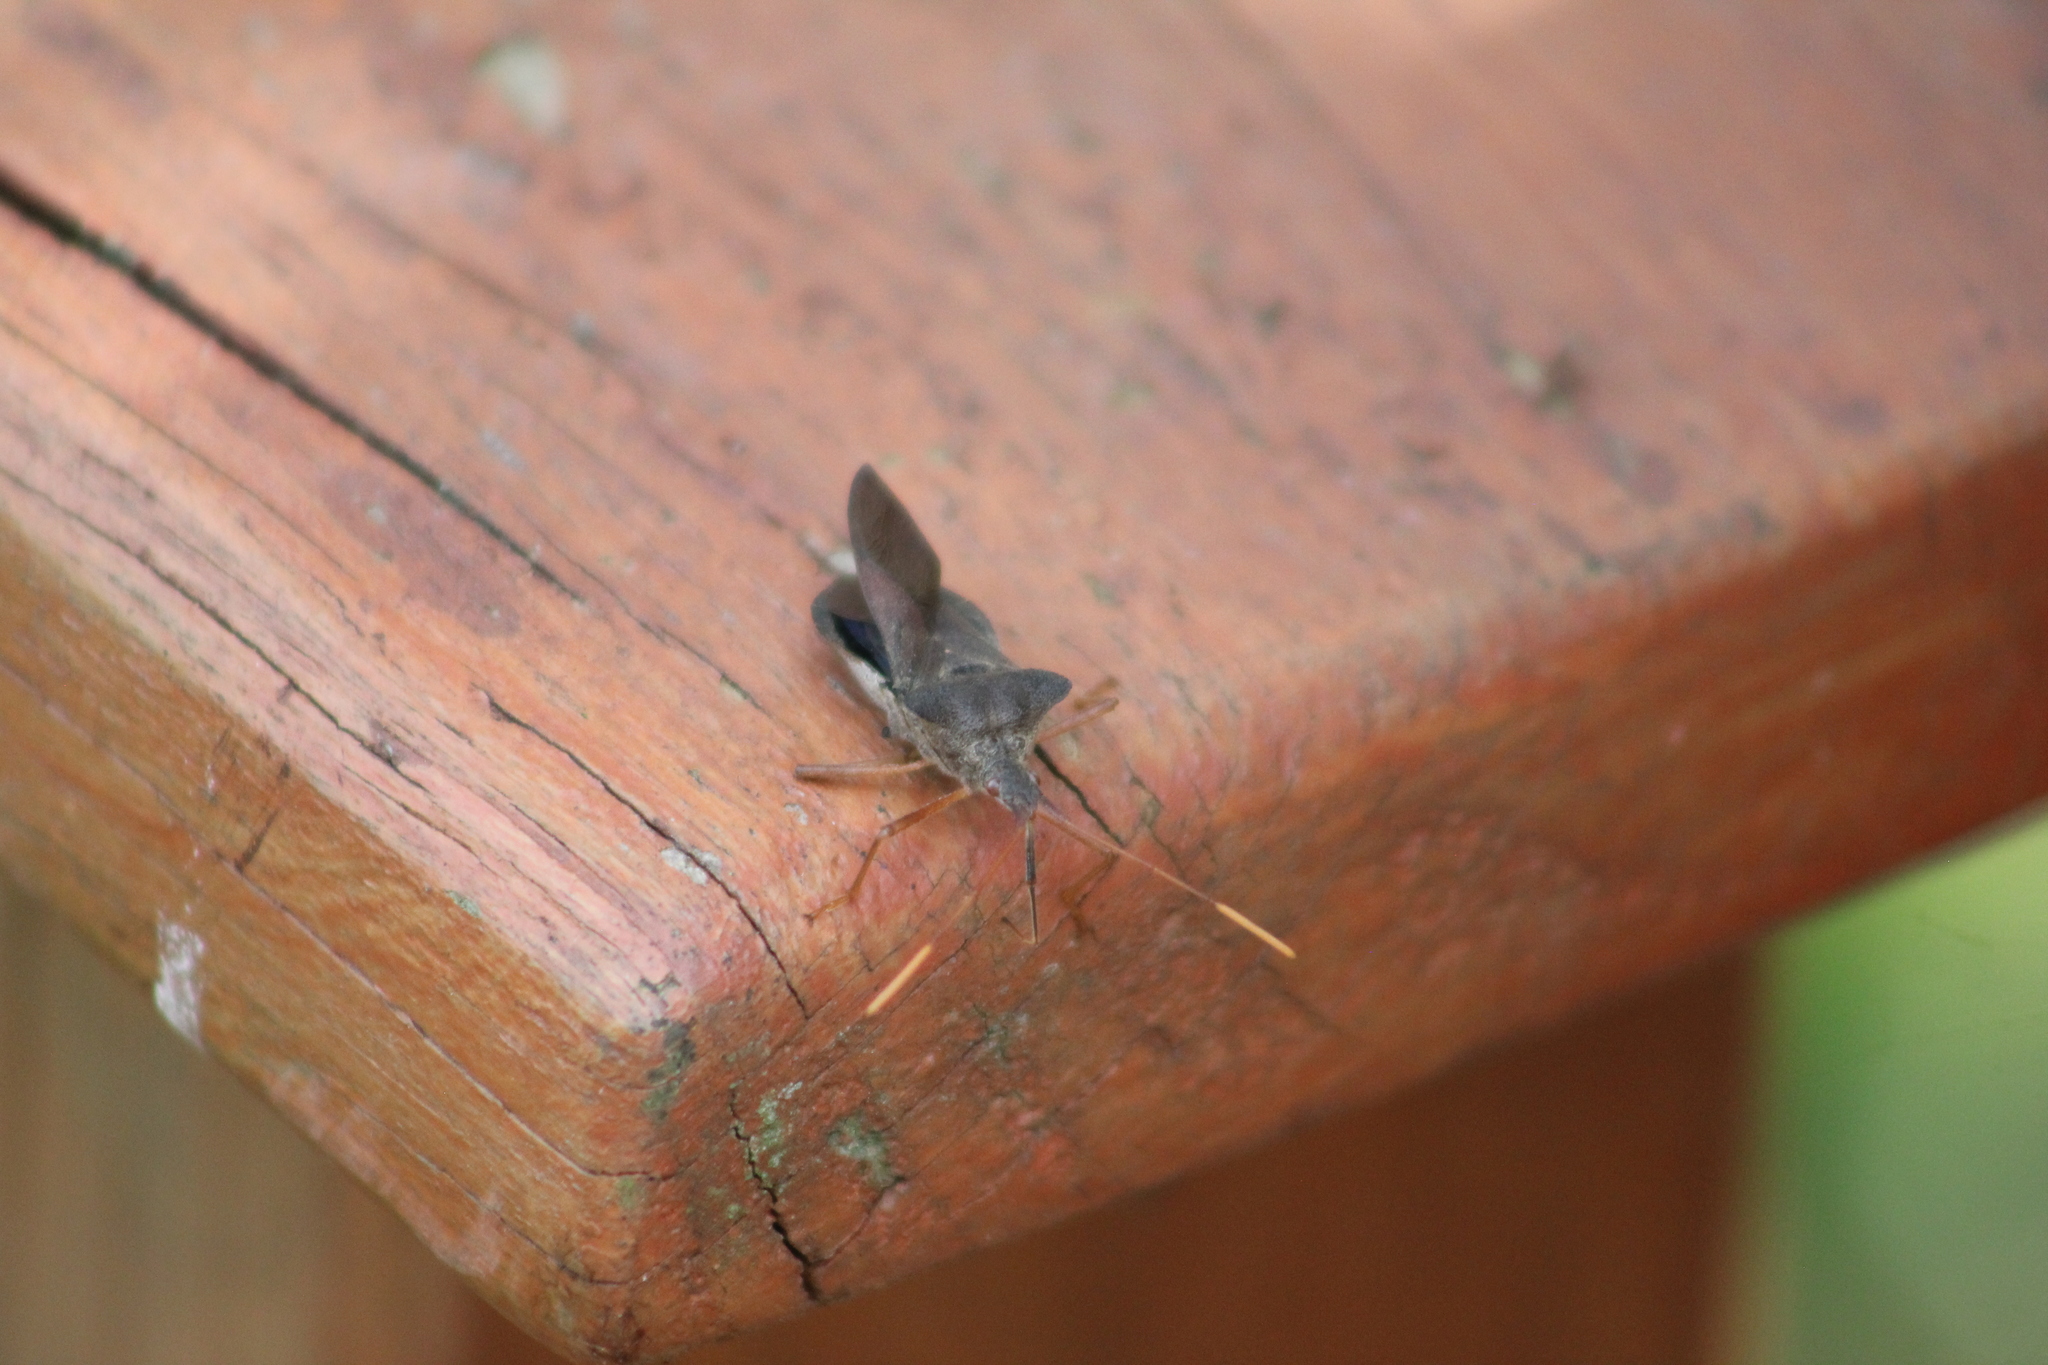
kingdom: Animalia
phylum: Arthropoda
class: Insecta
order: Hemiptera
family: Coreidae
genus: Leptoglossus
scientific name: Leptoglossus fulvicornis
